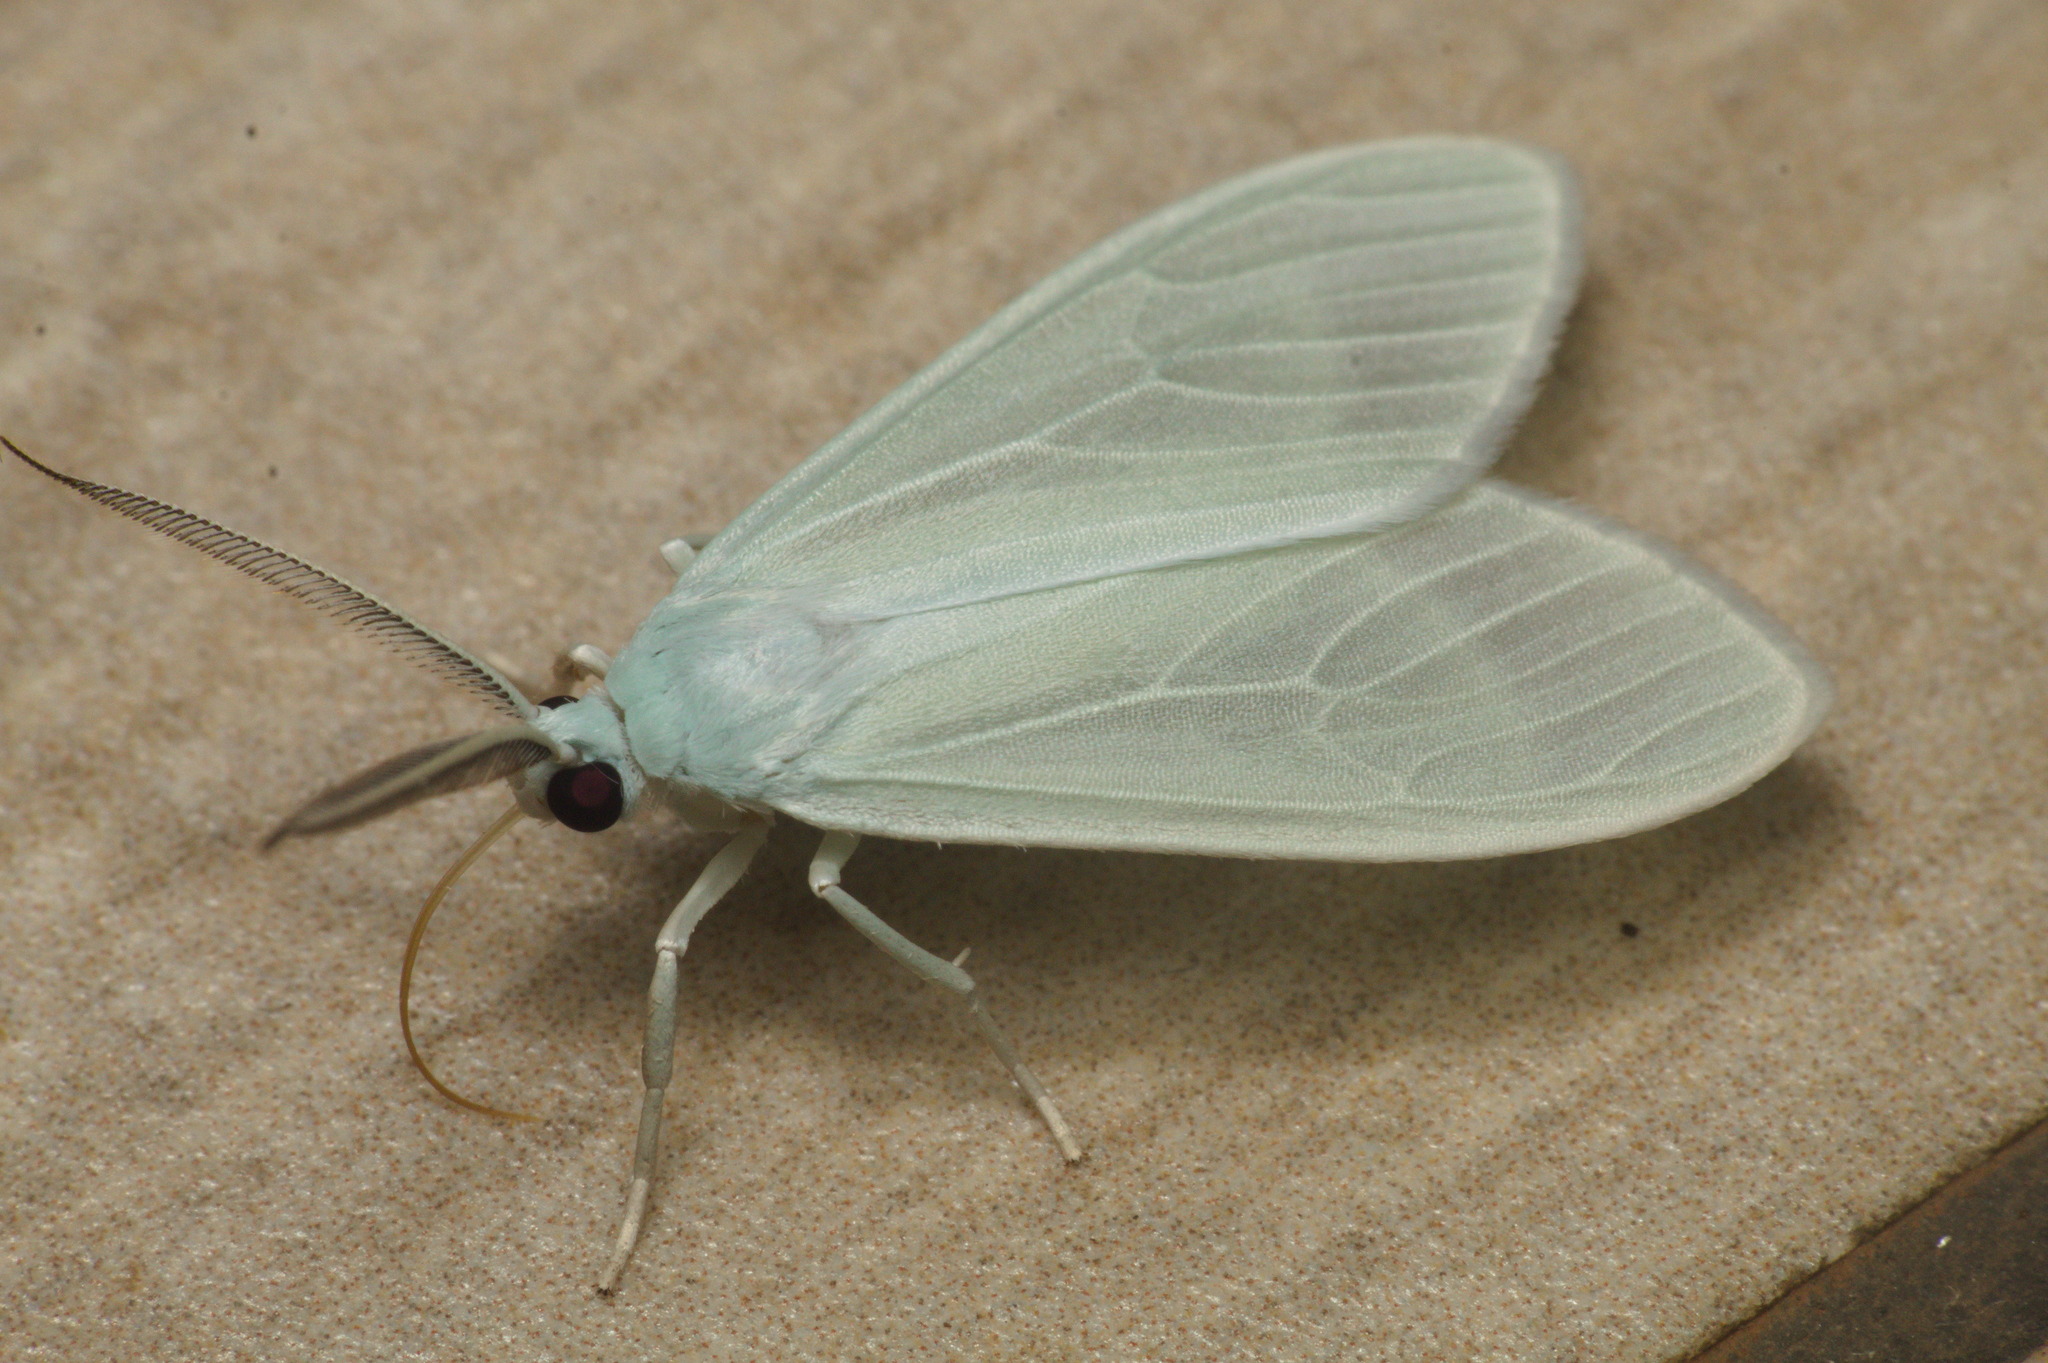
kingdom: Animalia
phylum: Arthropoda
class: Insecta
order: Lepidoptera
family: Erebidae
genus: Eucereon
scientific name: Eucereon vestalis
